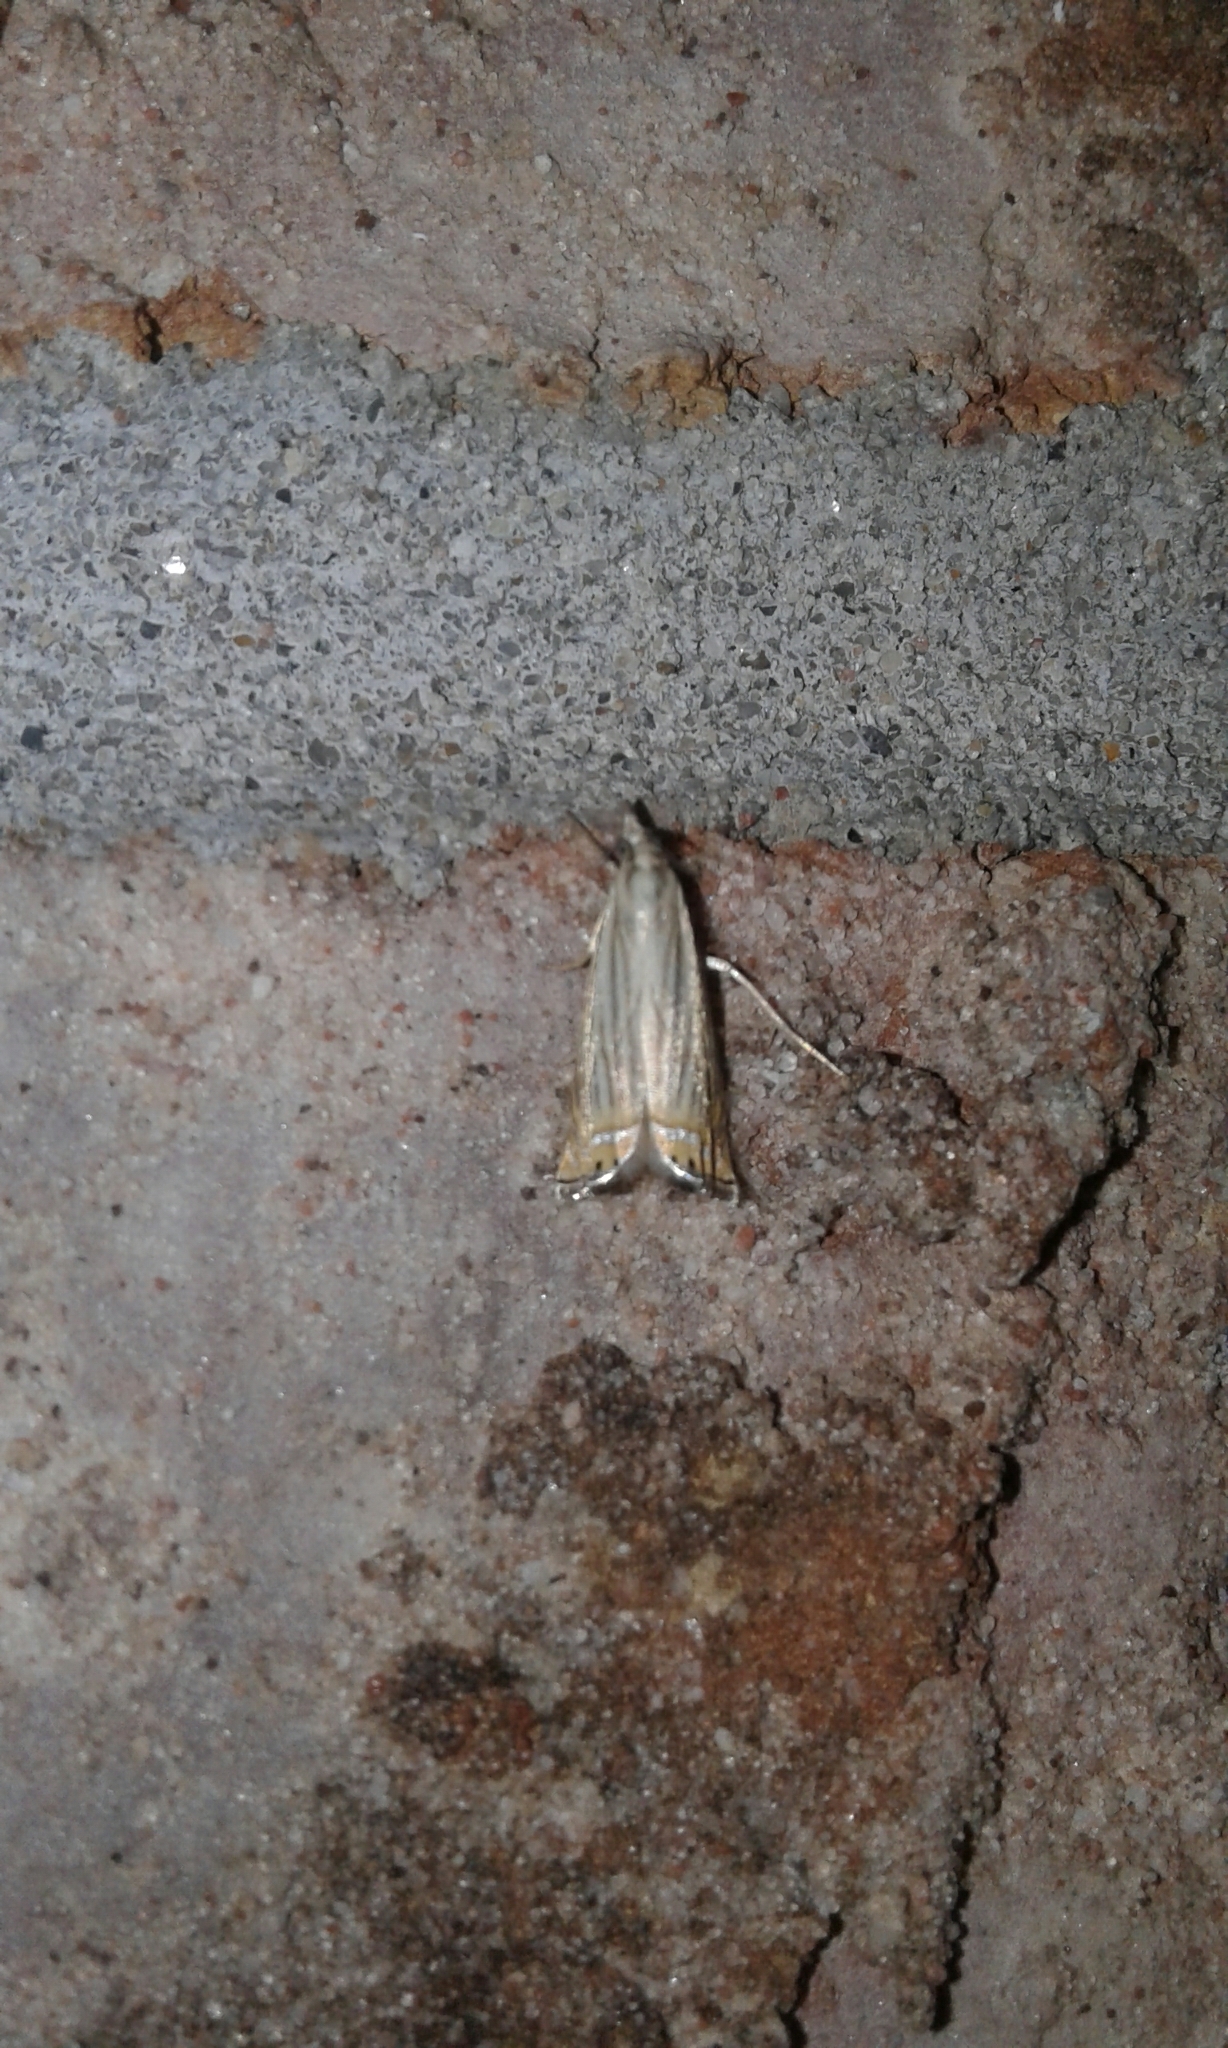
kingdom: Animalia
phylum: Arthropoda
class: Insecta
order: Lepidoptera
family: Crambidae
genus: Chrysoteuchia
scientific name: Chrysoteuchia topiarius
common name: Topiary grass-veneer
